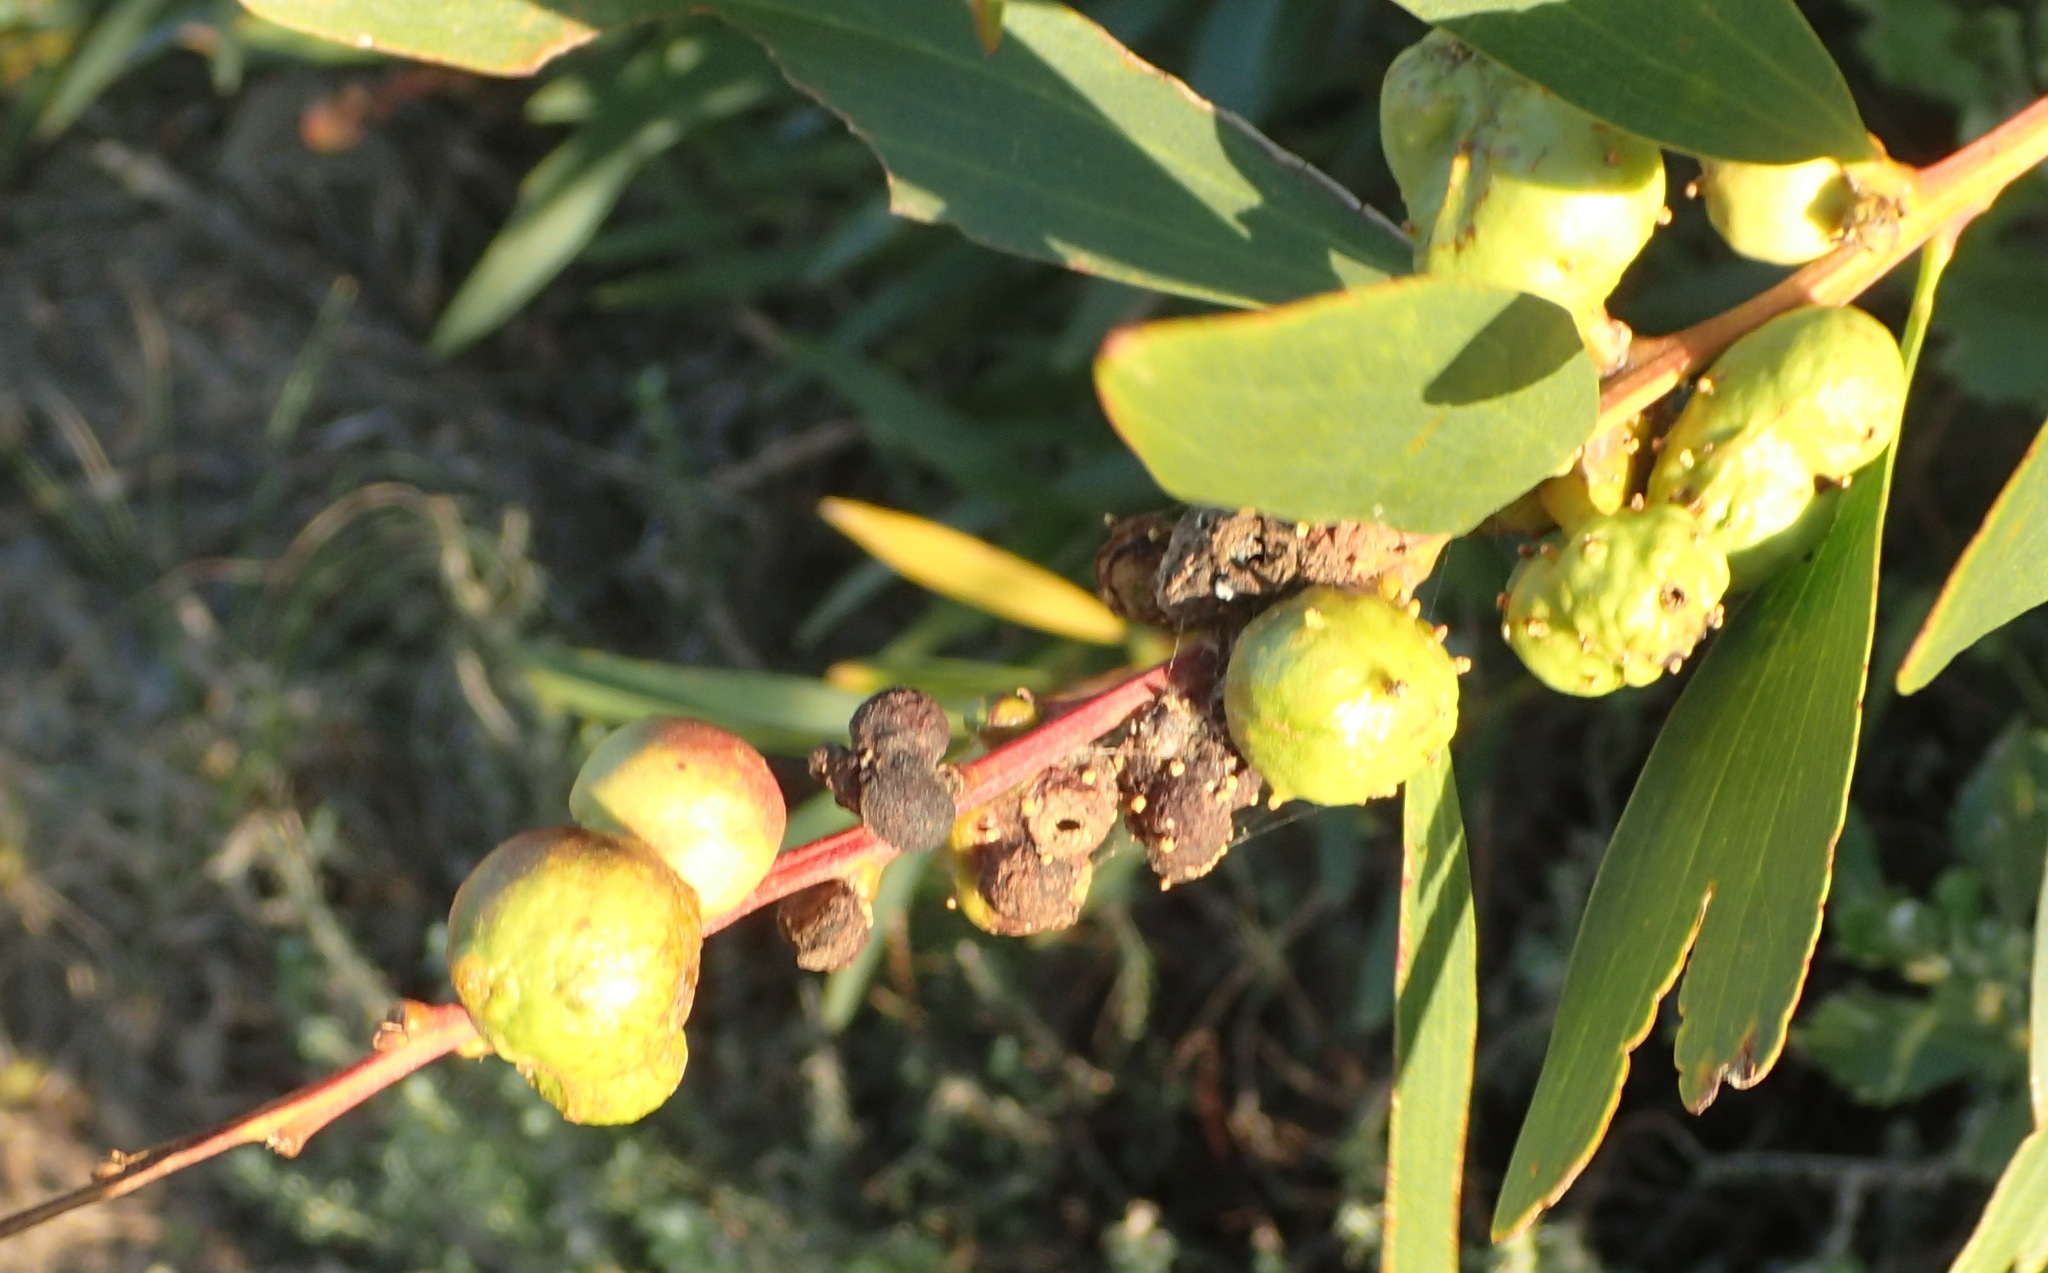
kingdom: Plantae
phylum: Tracheophyta
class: Magnoliopsida
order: Fabales
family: Fabaceae
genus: Acacia
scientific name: Acacia longifolia
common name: Sydney golden wattle
